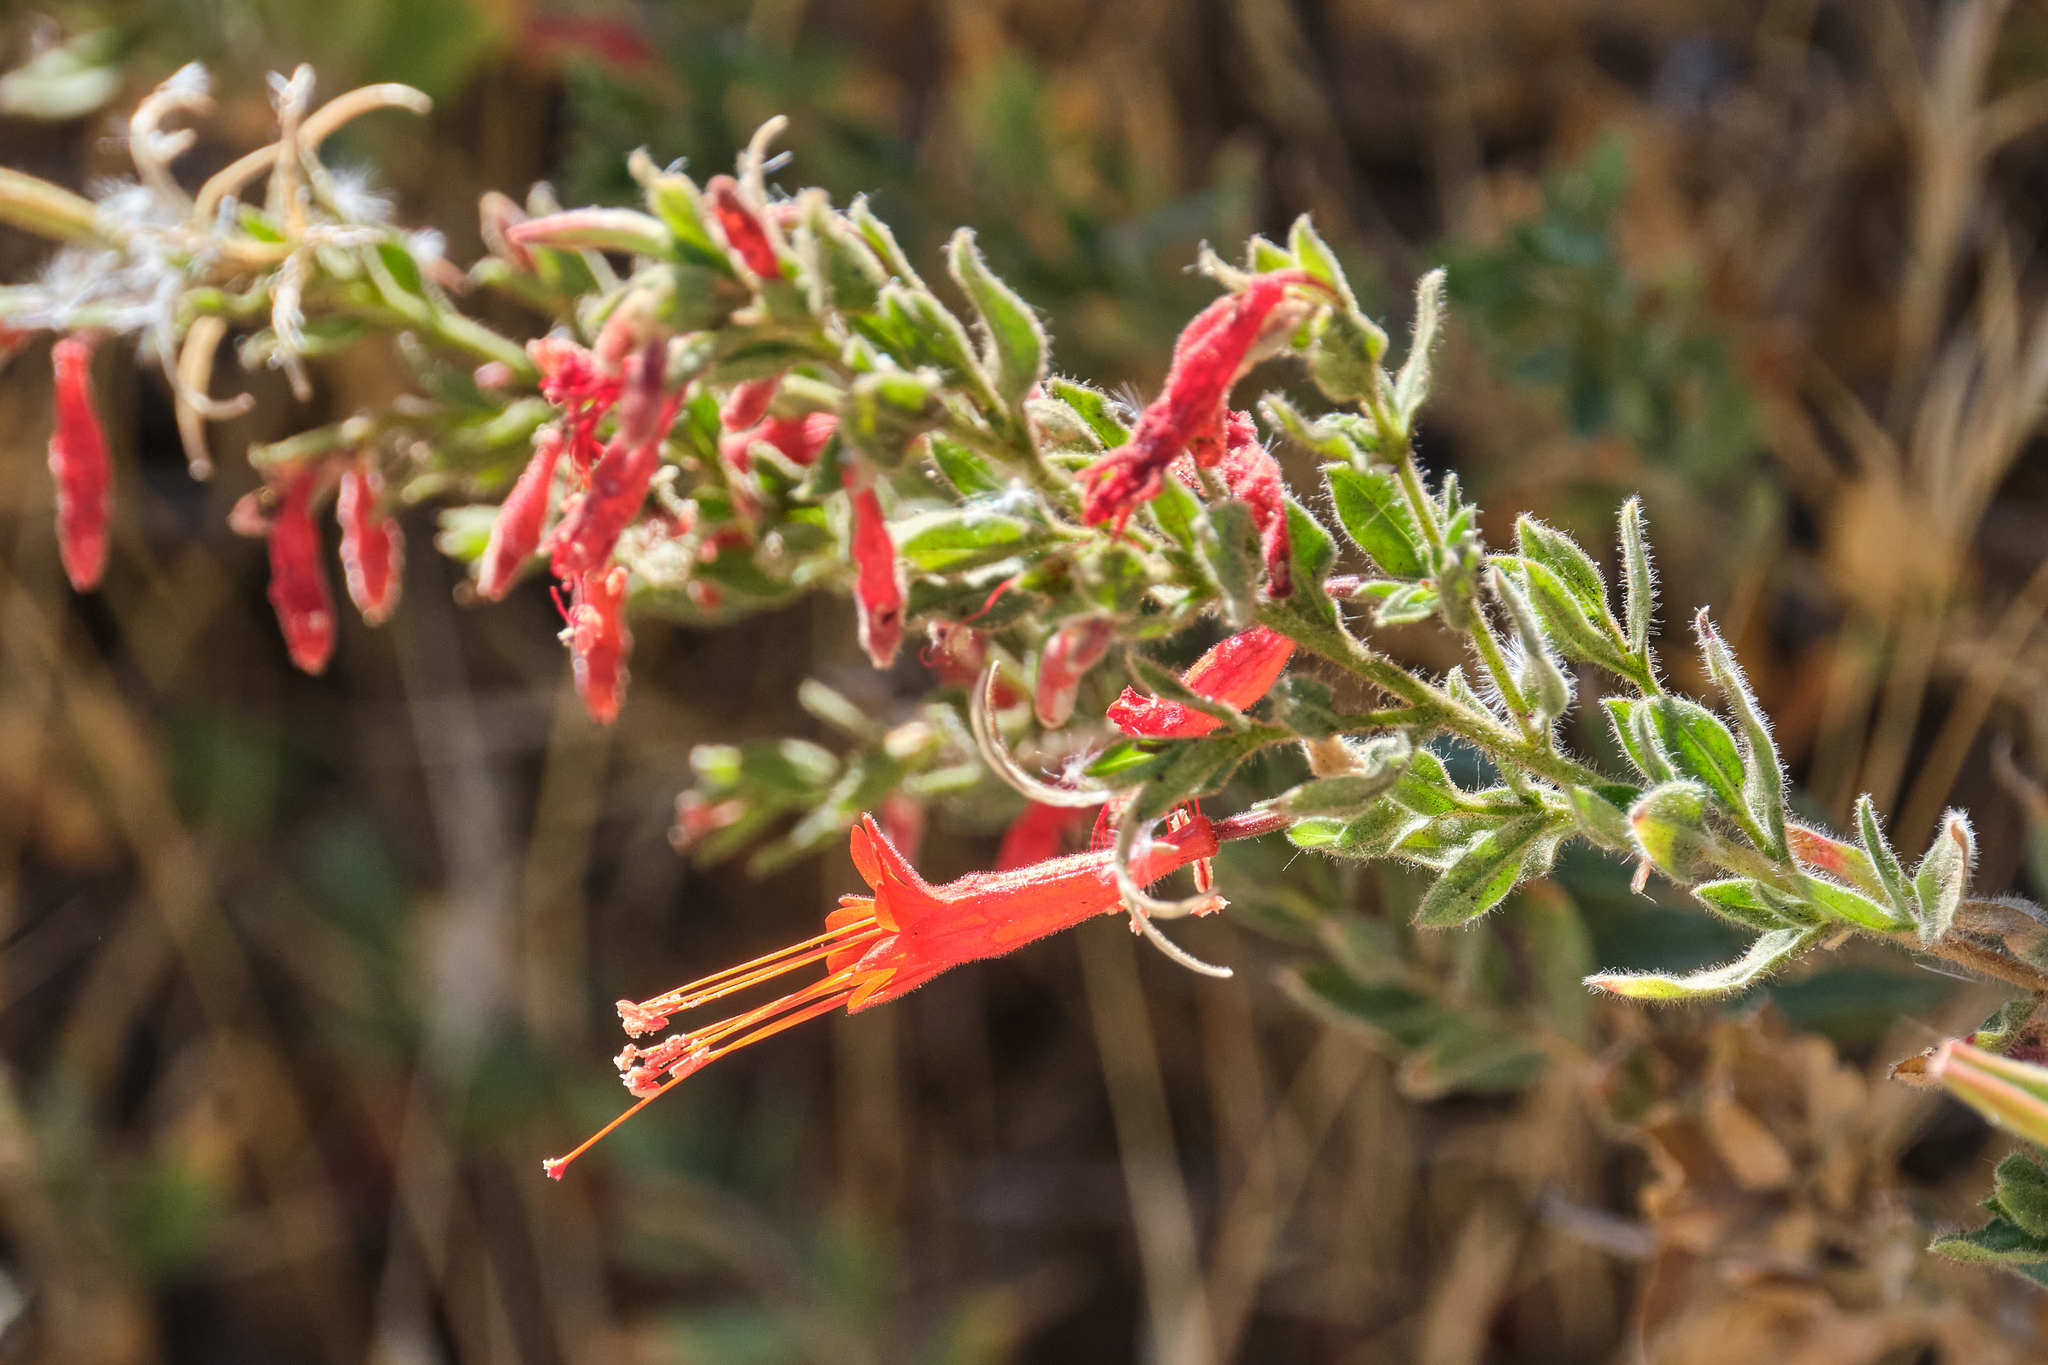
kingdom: Plantae
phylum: Tracheophyta
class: Magnoliopsida
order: Myrtales
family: Onagraceae
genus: Epilobium
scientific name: Epilobium canum
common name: California-fuchsia
